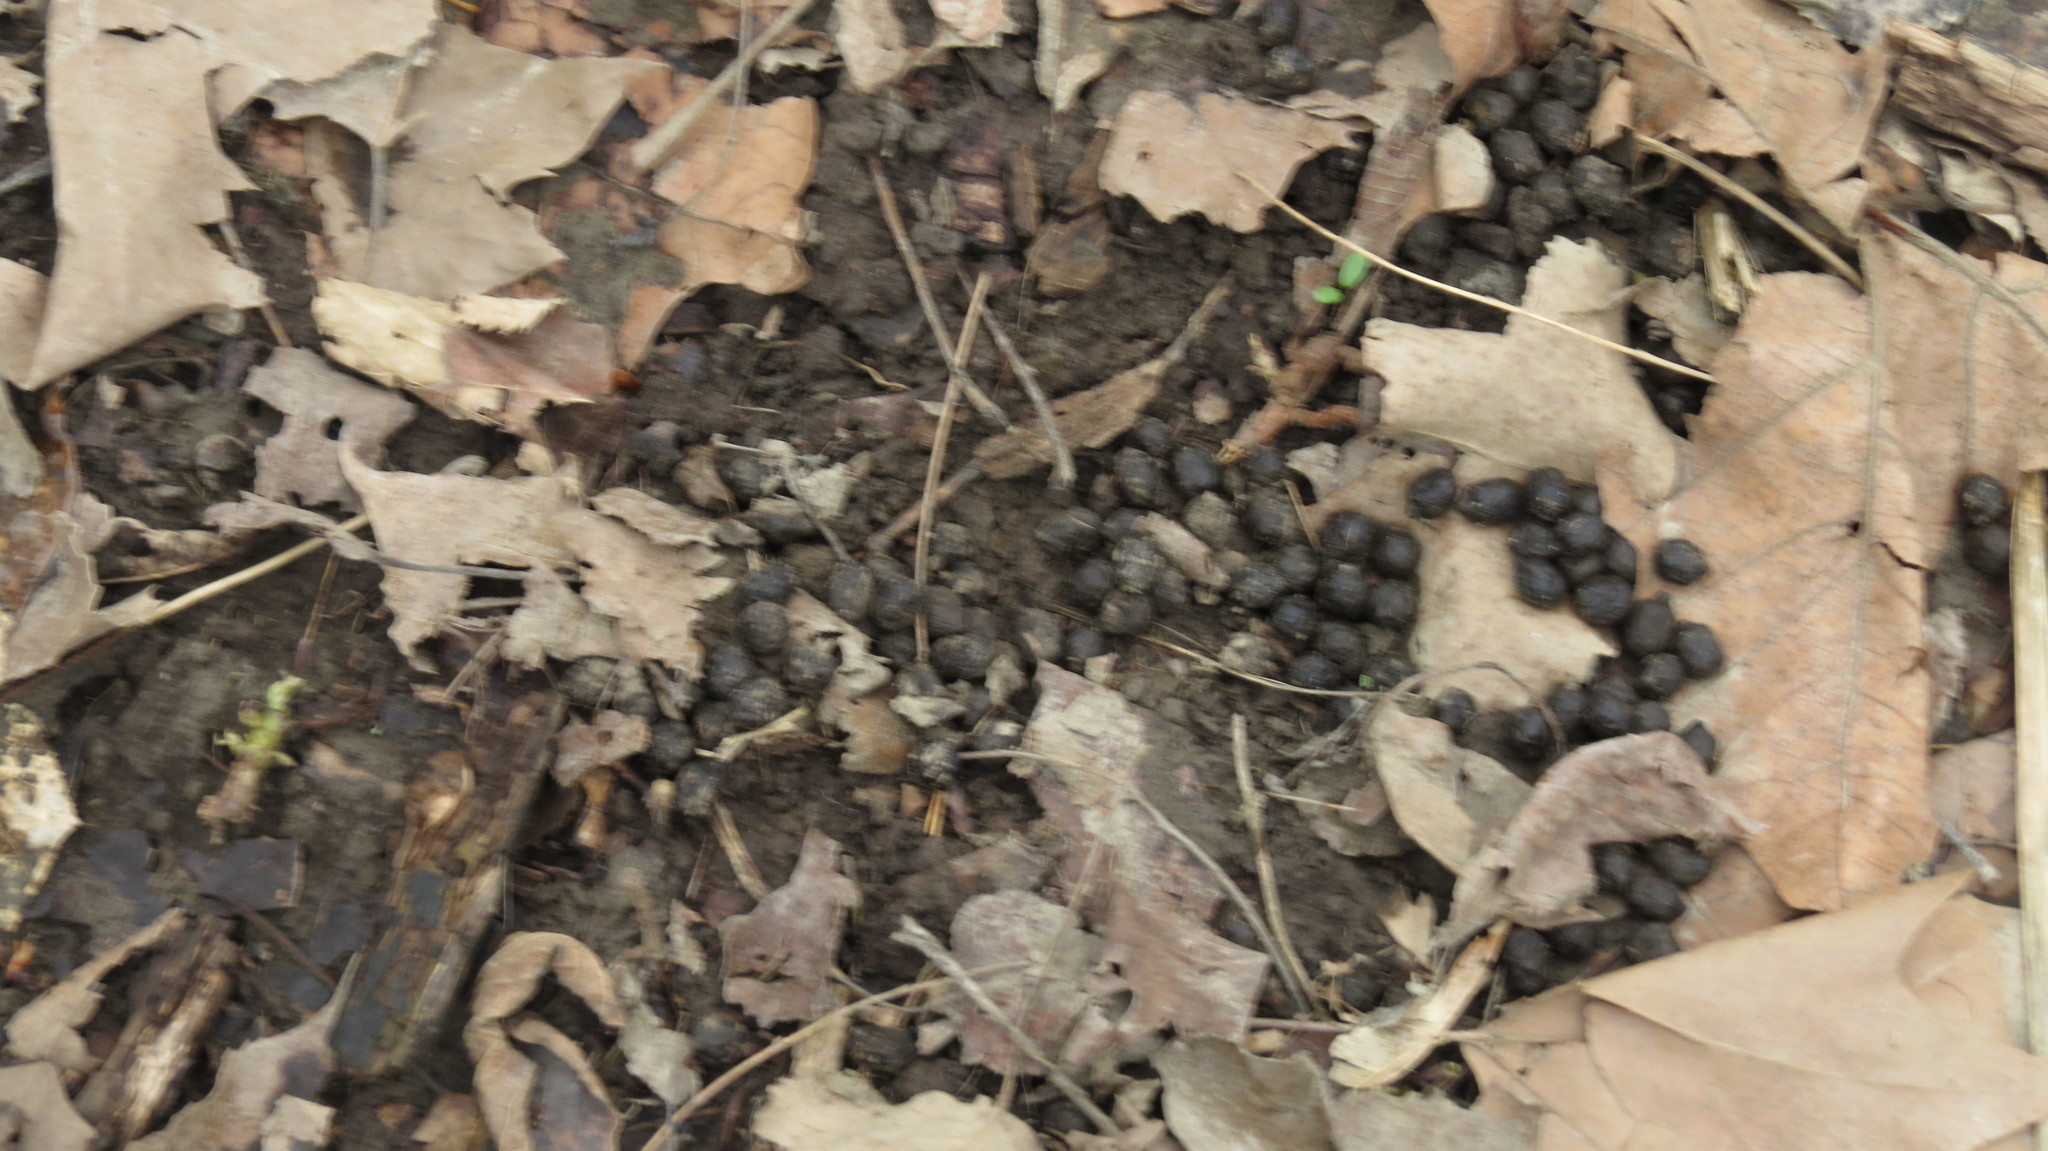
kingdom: Animalia
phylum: Chordata
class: Mammalia
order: Artiodactyla
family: Cervidae
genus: Odocoileus
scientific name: Odocoileus virginianus
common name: White-tailed deer
